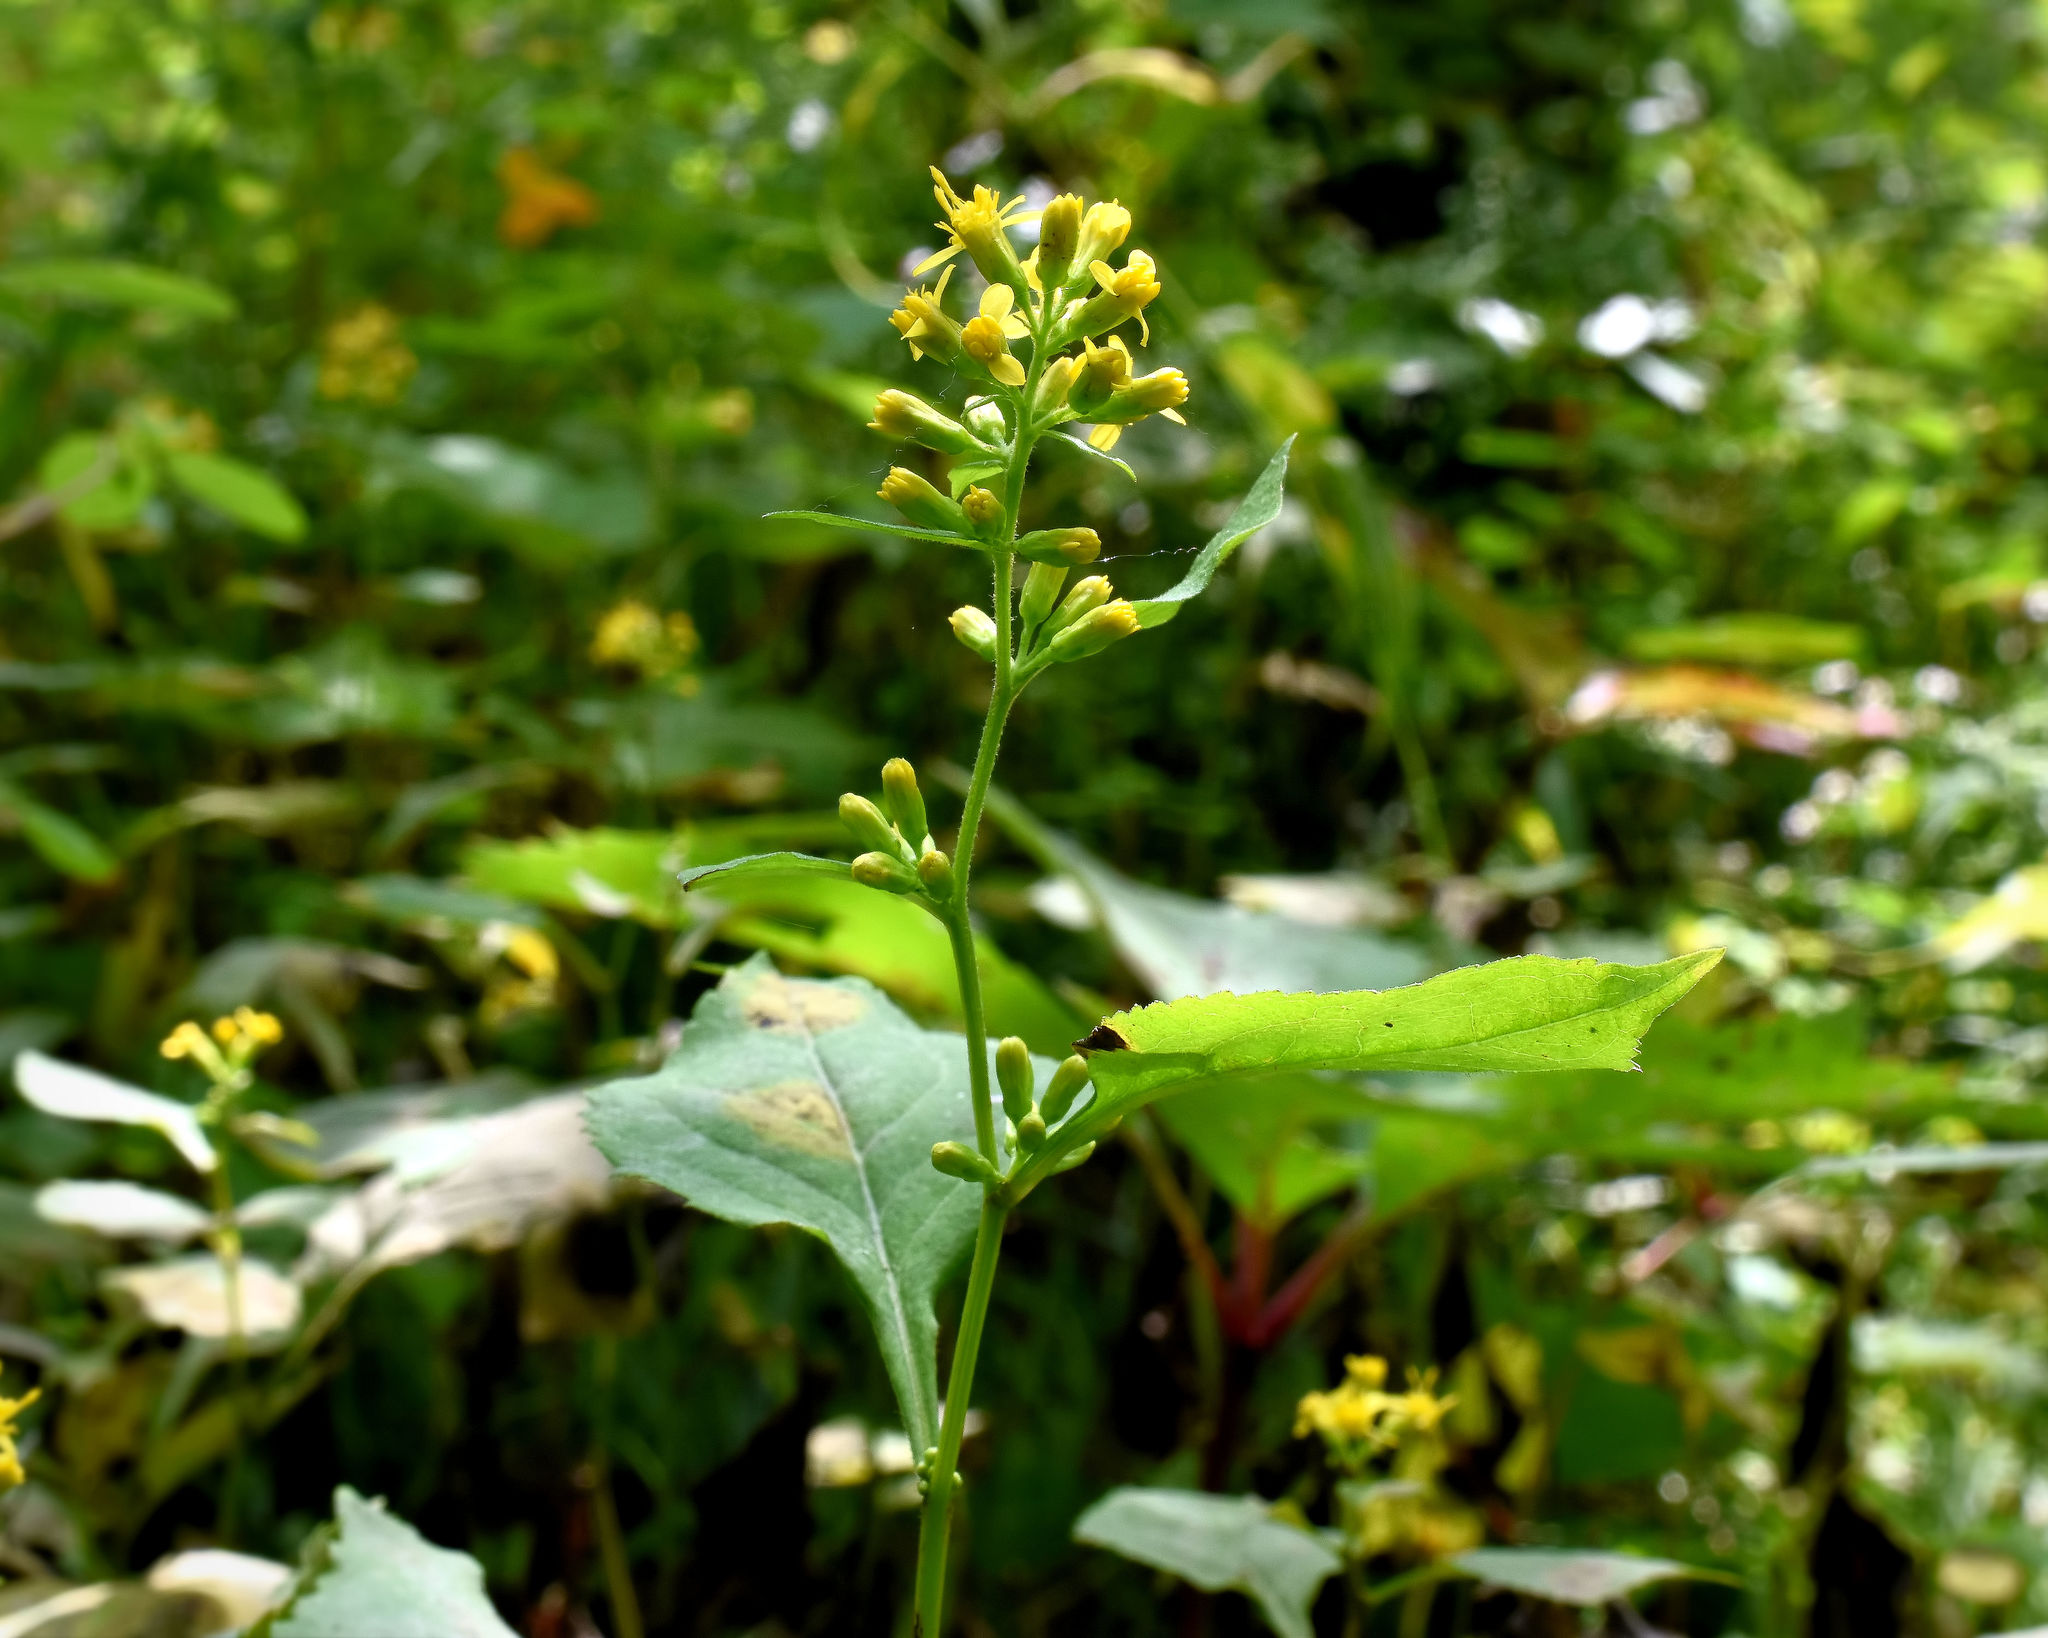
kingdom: Plantae
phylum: Tracheophyta
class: Magnoliopsida
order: Asterales
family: Asteraceae
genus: Solidago
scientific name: Solidago flexicaulis
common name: Zig-zag goldenrod
